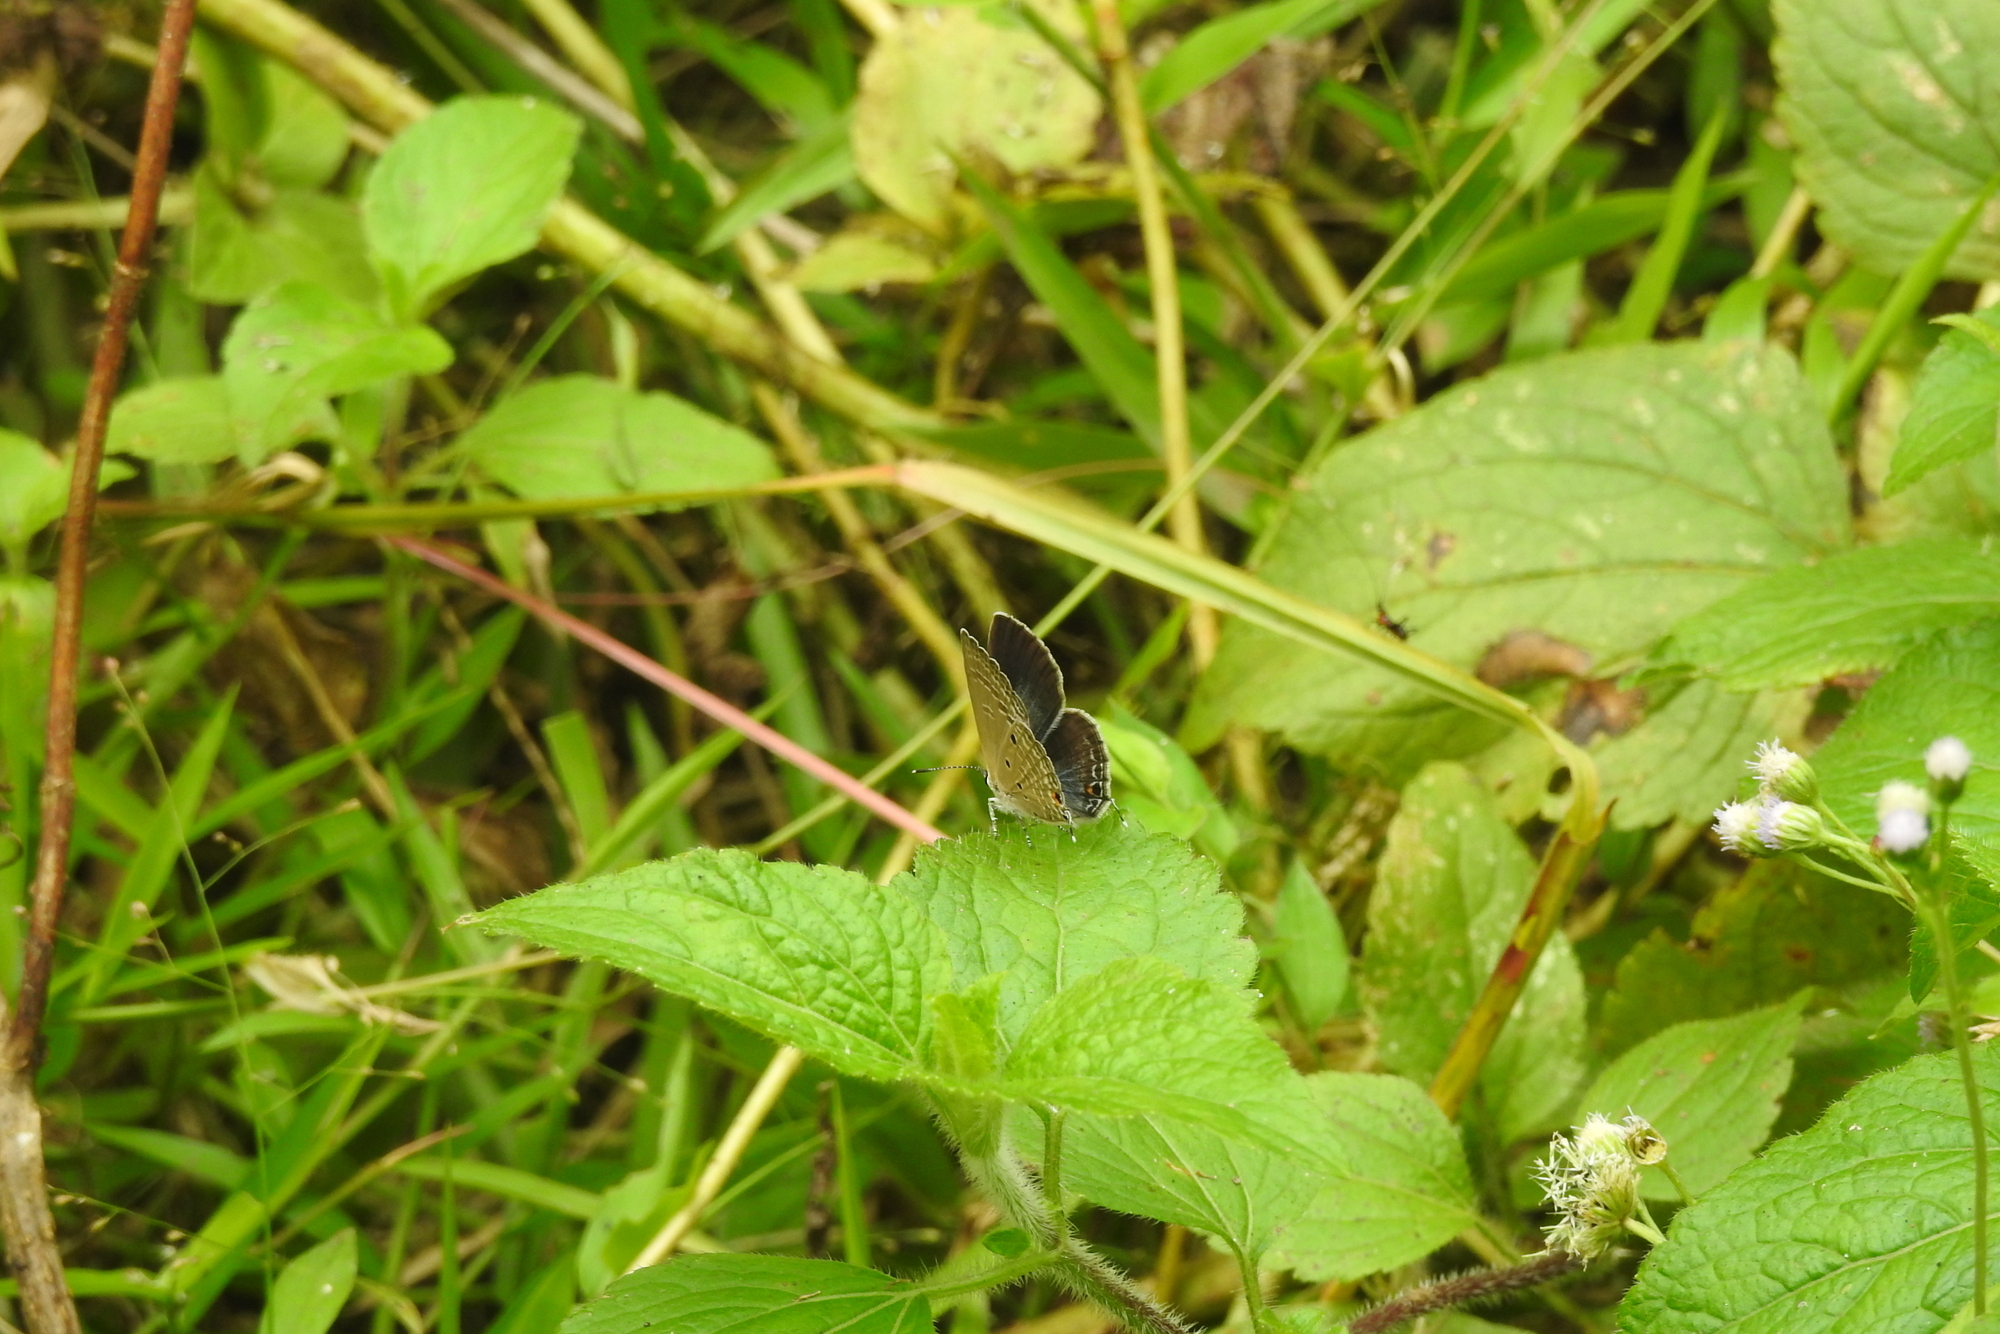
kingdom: Animalia
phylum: Arthropoda
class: Insecta
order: Lepidoptera
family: Lycaenidae
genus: Luthrodes
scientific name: Luthrodes pandava
